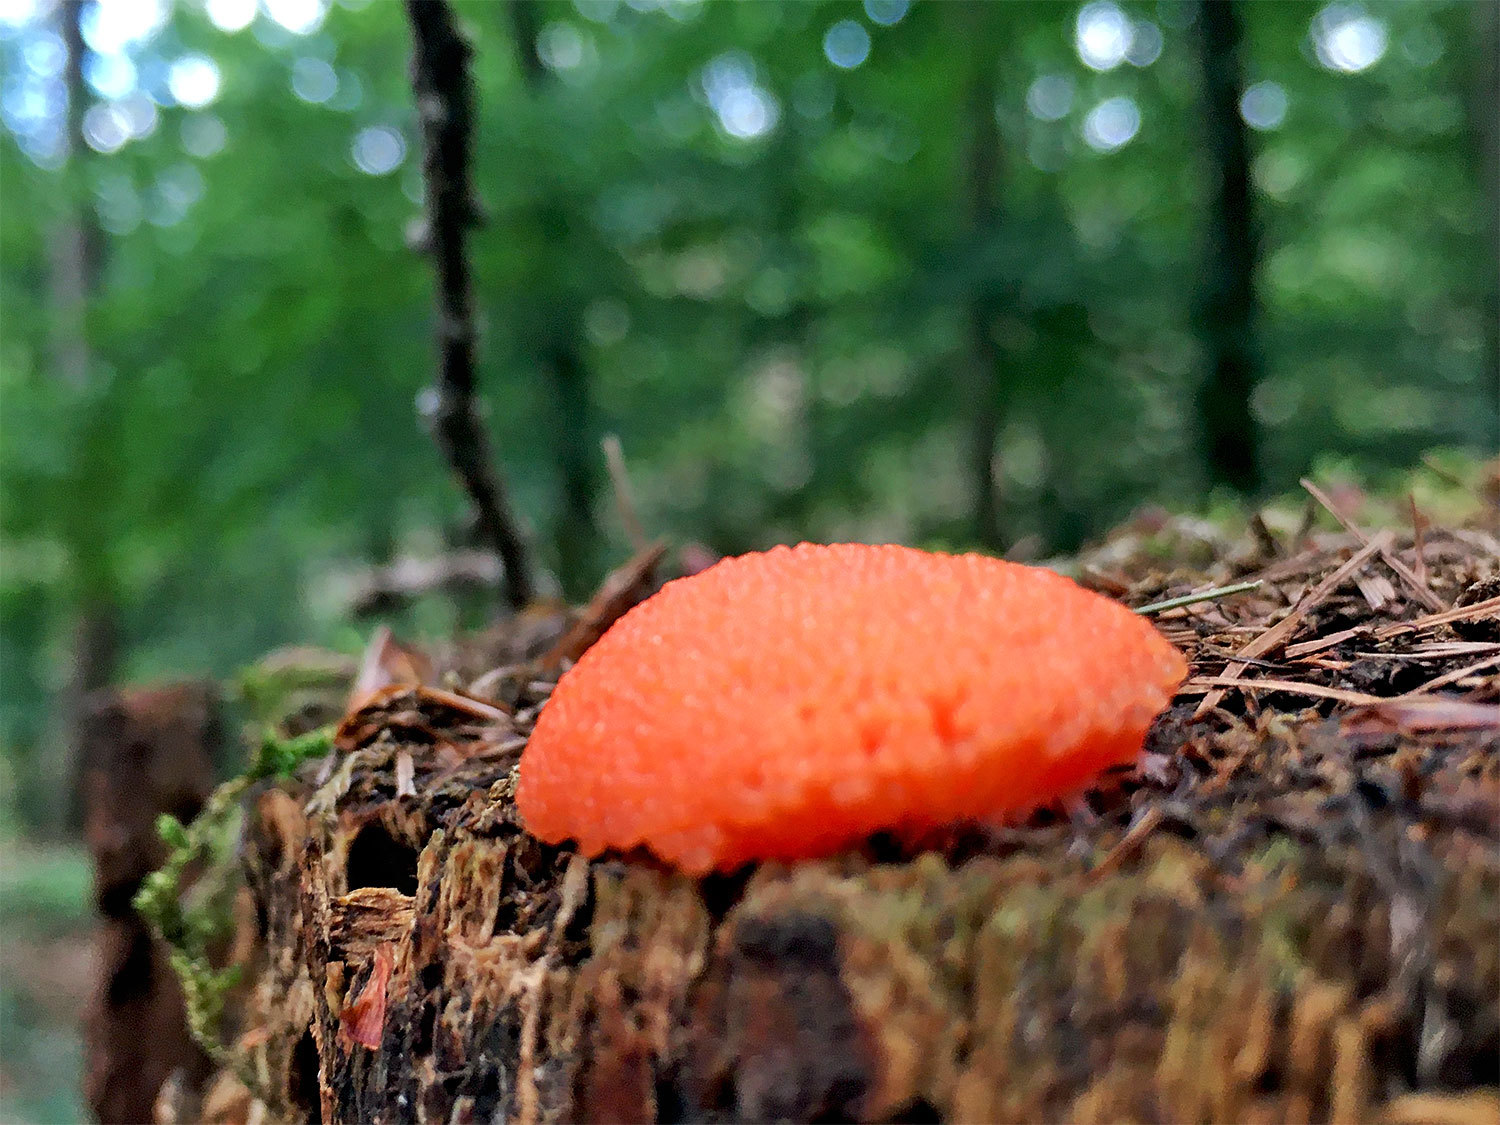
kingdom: Protozoa
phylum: Mycetozoa
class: Myxomycetes
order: Cribrariales
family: Tubiferaceae
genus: Tubifera
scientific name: Tubifera ferruginosa
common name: Red raspberry slime mold
